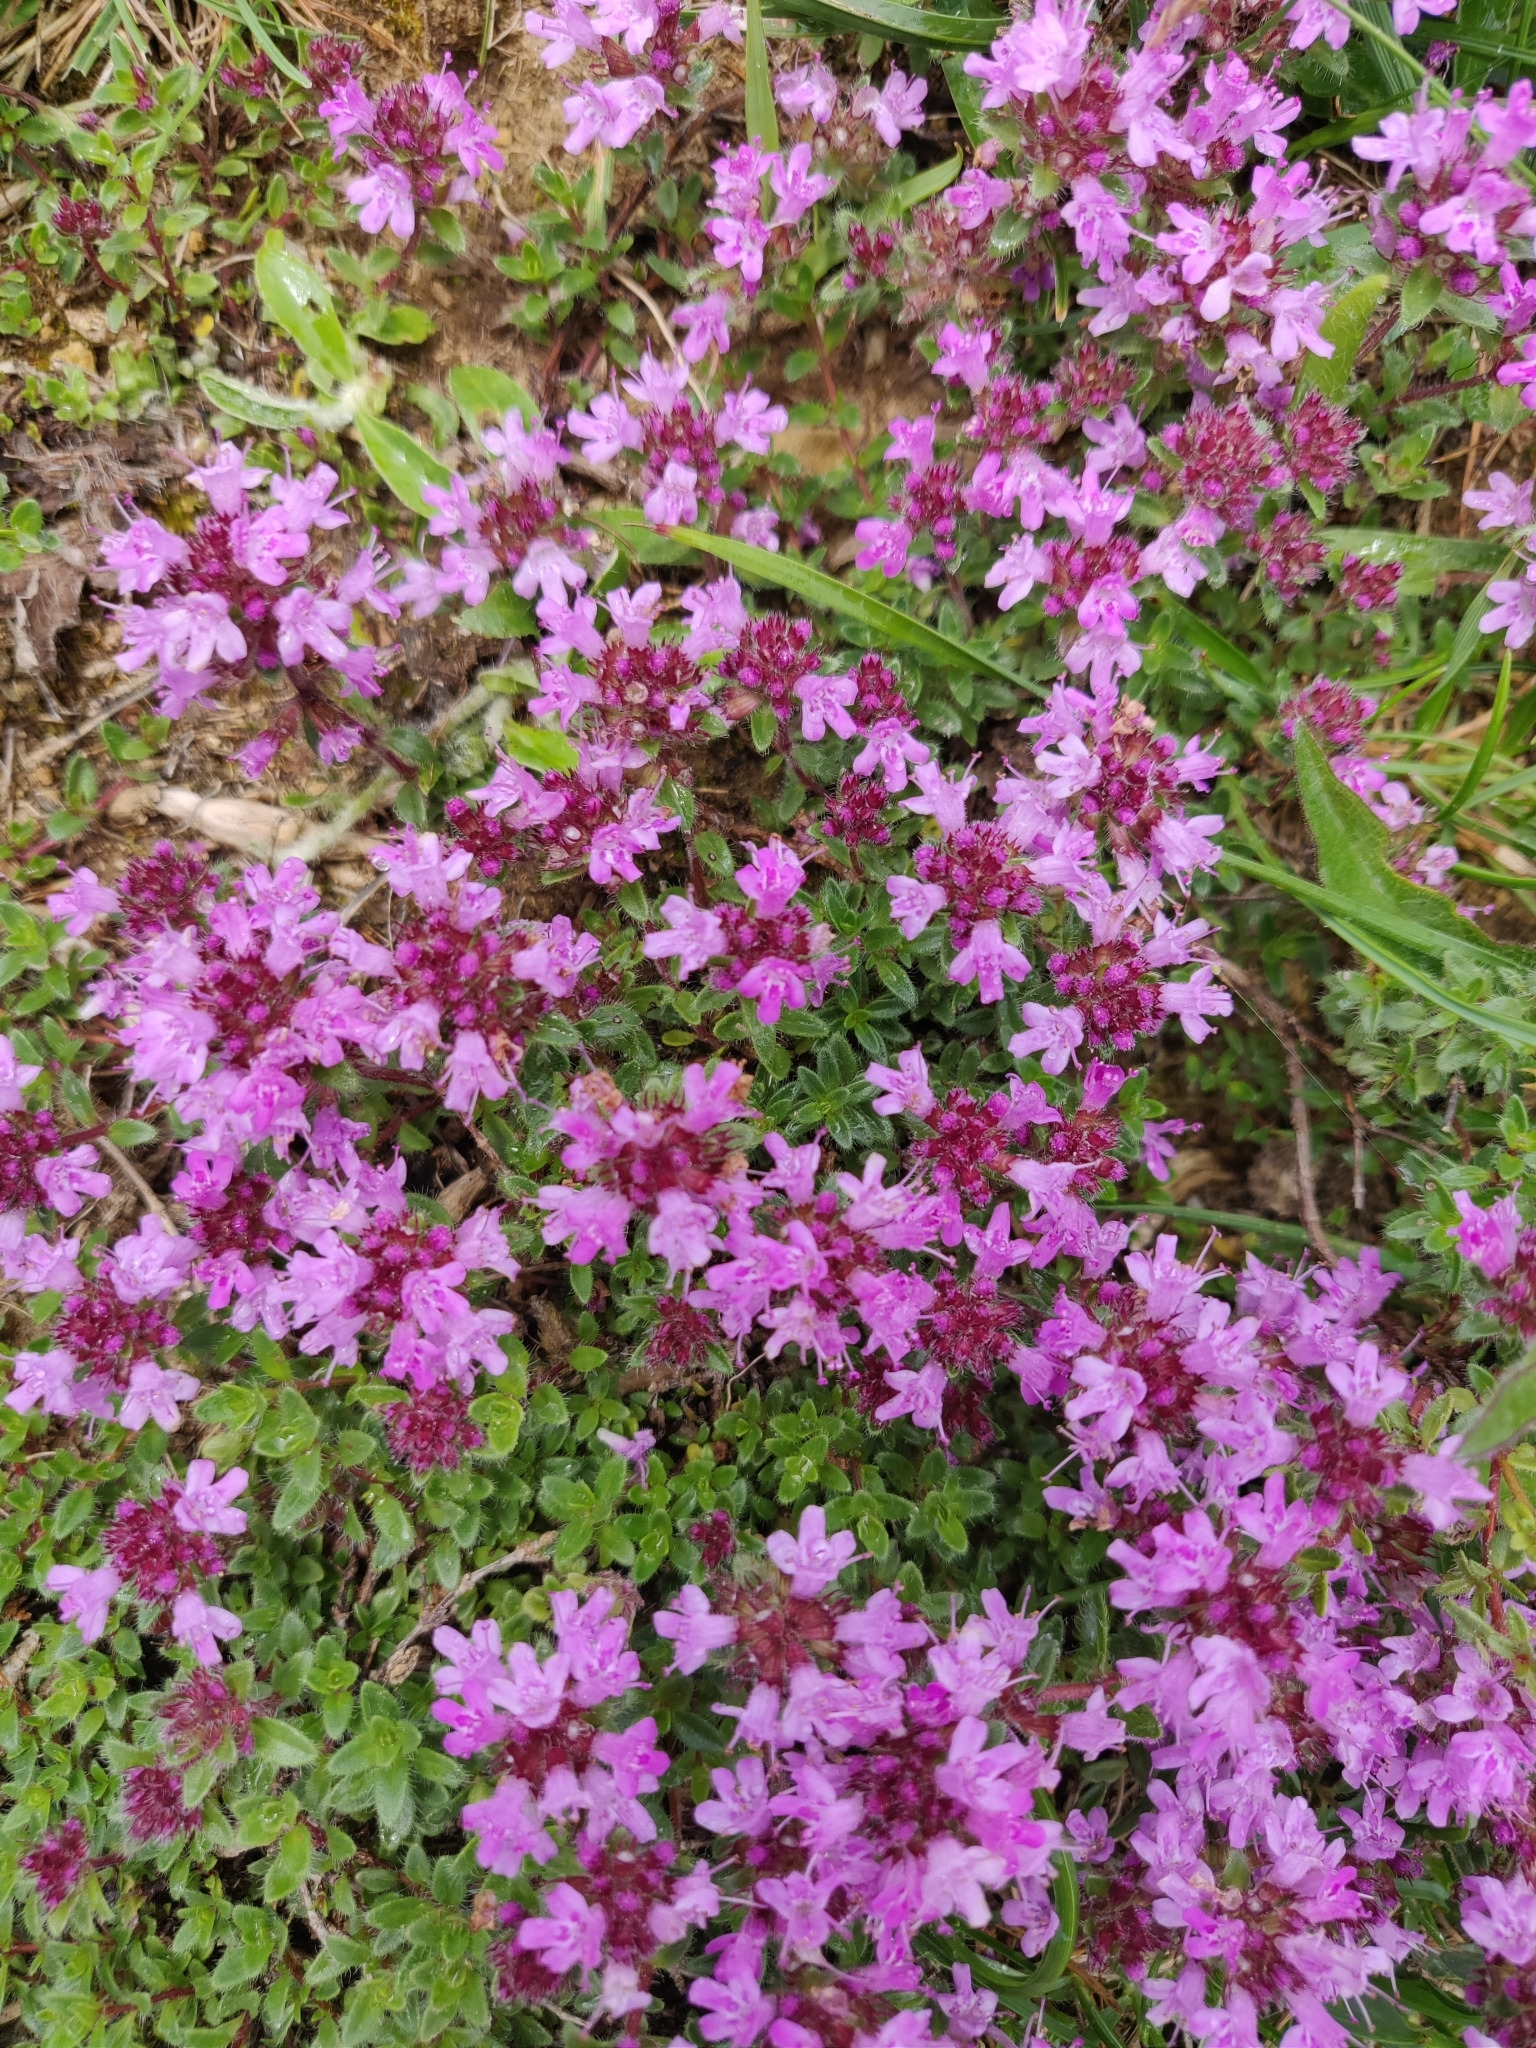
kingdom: Plantae
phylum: Tracheophyta
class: Magnoliopsida
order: Lamiales
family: Lamiaceae
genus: Thymus
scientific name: Thymus praecox
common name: Wild thyme
